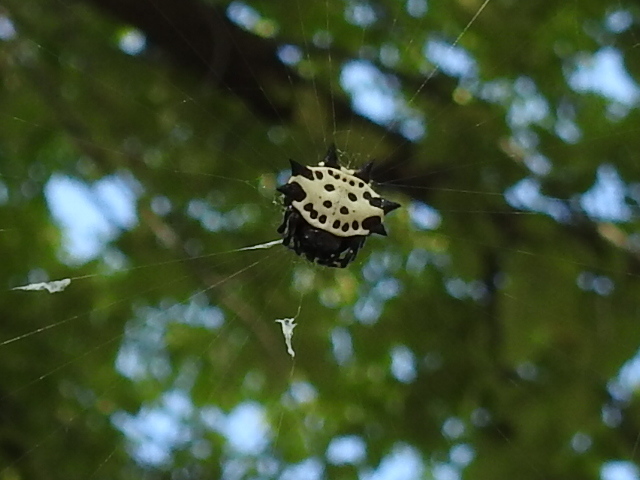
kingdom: Animalia
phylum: Arthropoda
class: Arachnida
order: Araneae
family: Araneidae
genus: Gasteracantha
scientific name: Gasteracantha cancriformis
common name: Orb weavers
